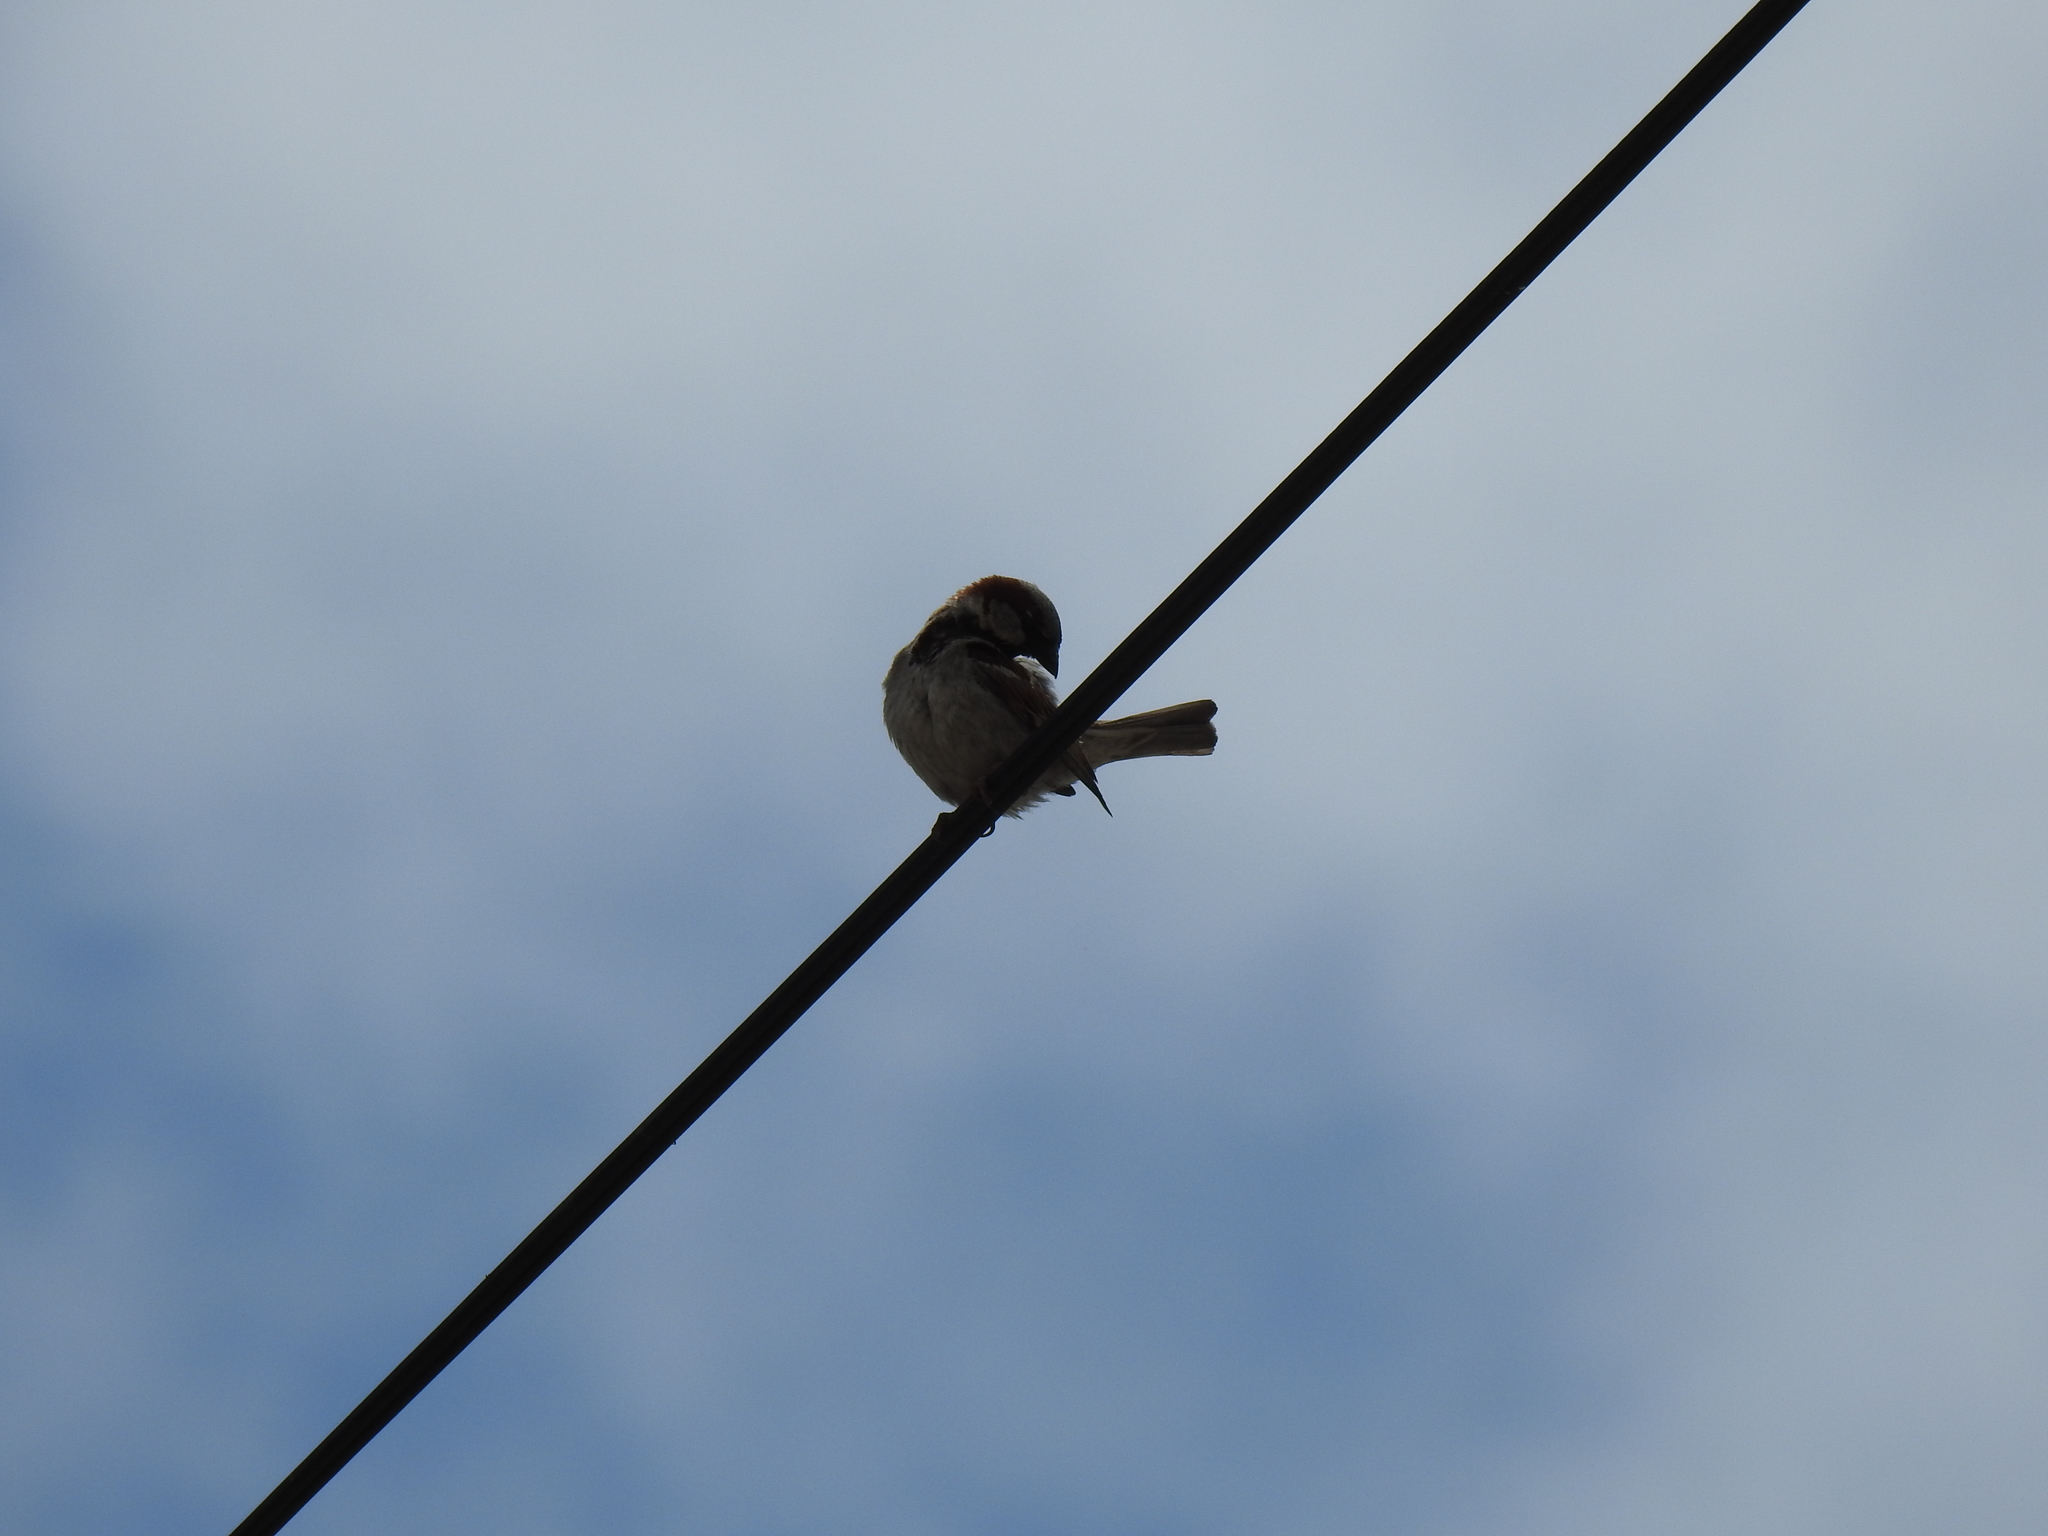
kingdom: Animalia
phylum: Chordata
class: Aves
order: Passeriformes
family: Passeridae
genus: Passer
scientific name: Passer domesticus
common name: House sparrow
